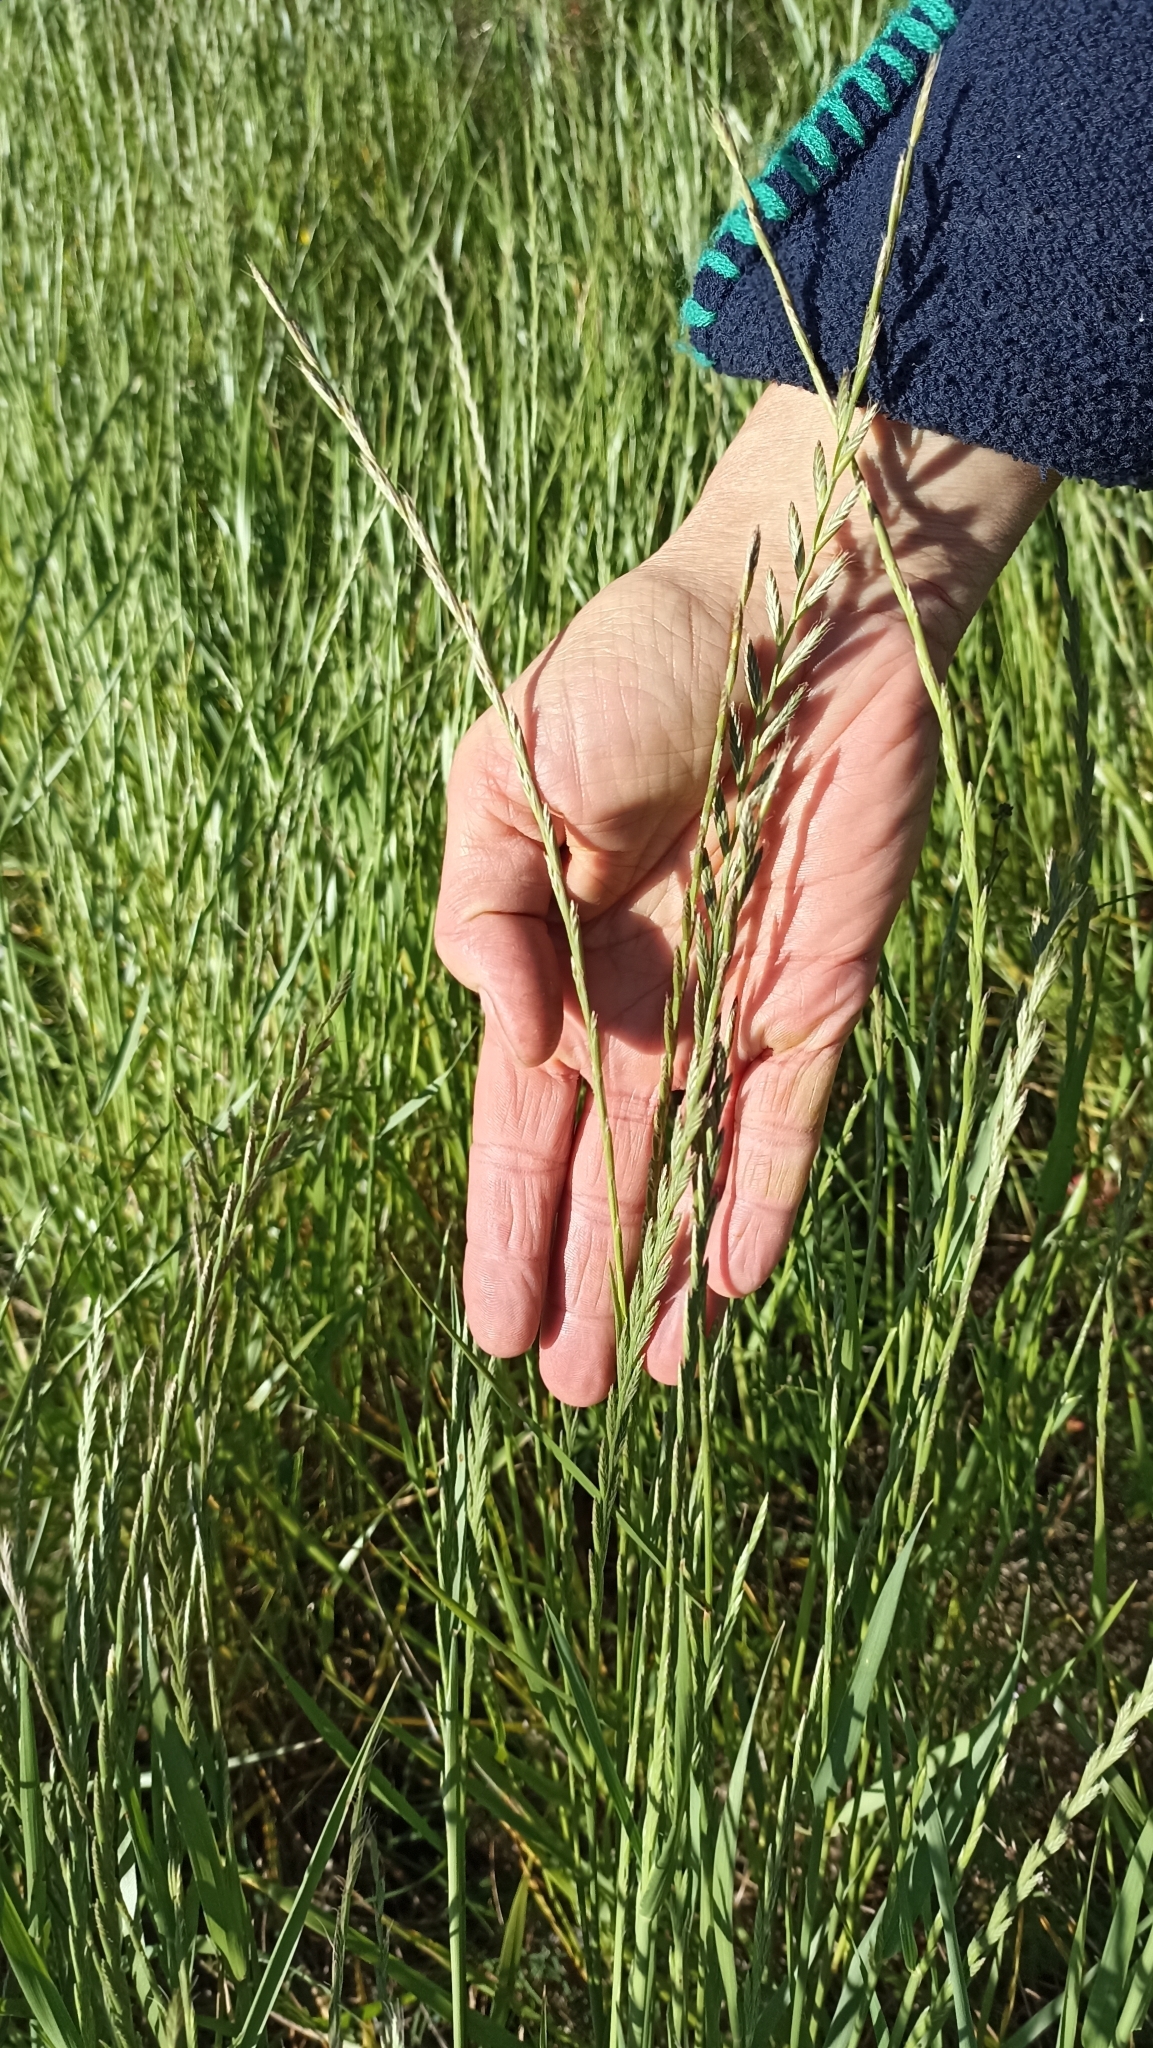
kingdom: Plantae
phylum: Tracheophyta
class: Liliopsida
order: Poales
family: Poaceae
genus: Lolium
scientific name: Lolium multiflorum
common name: Annual ryegrass
